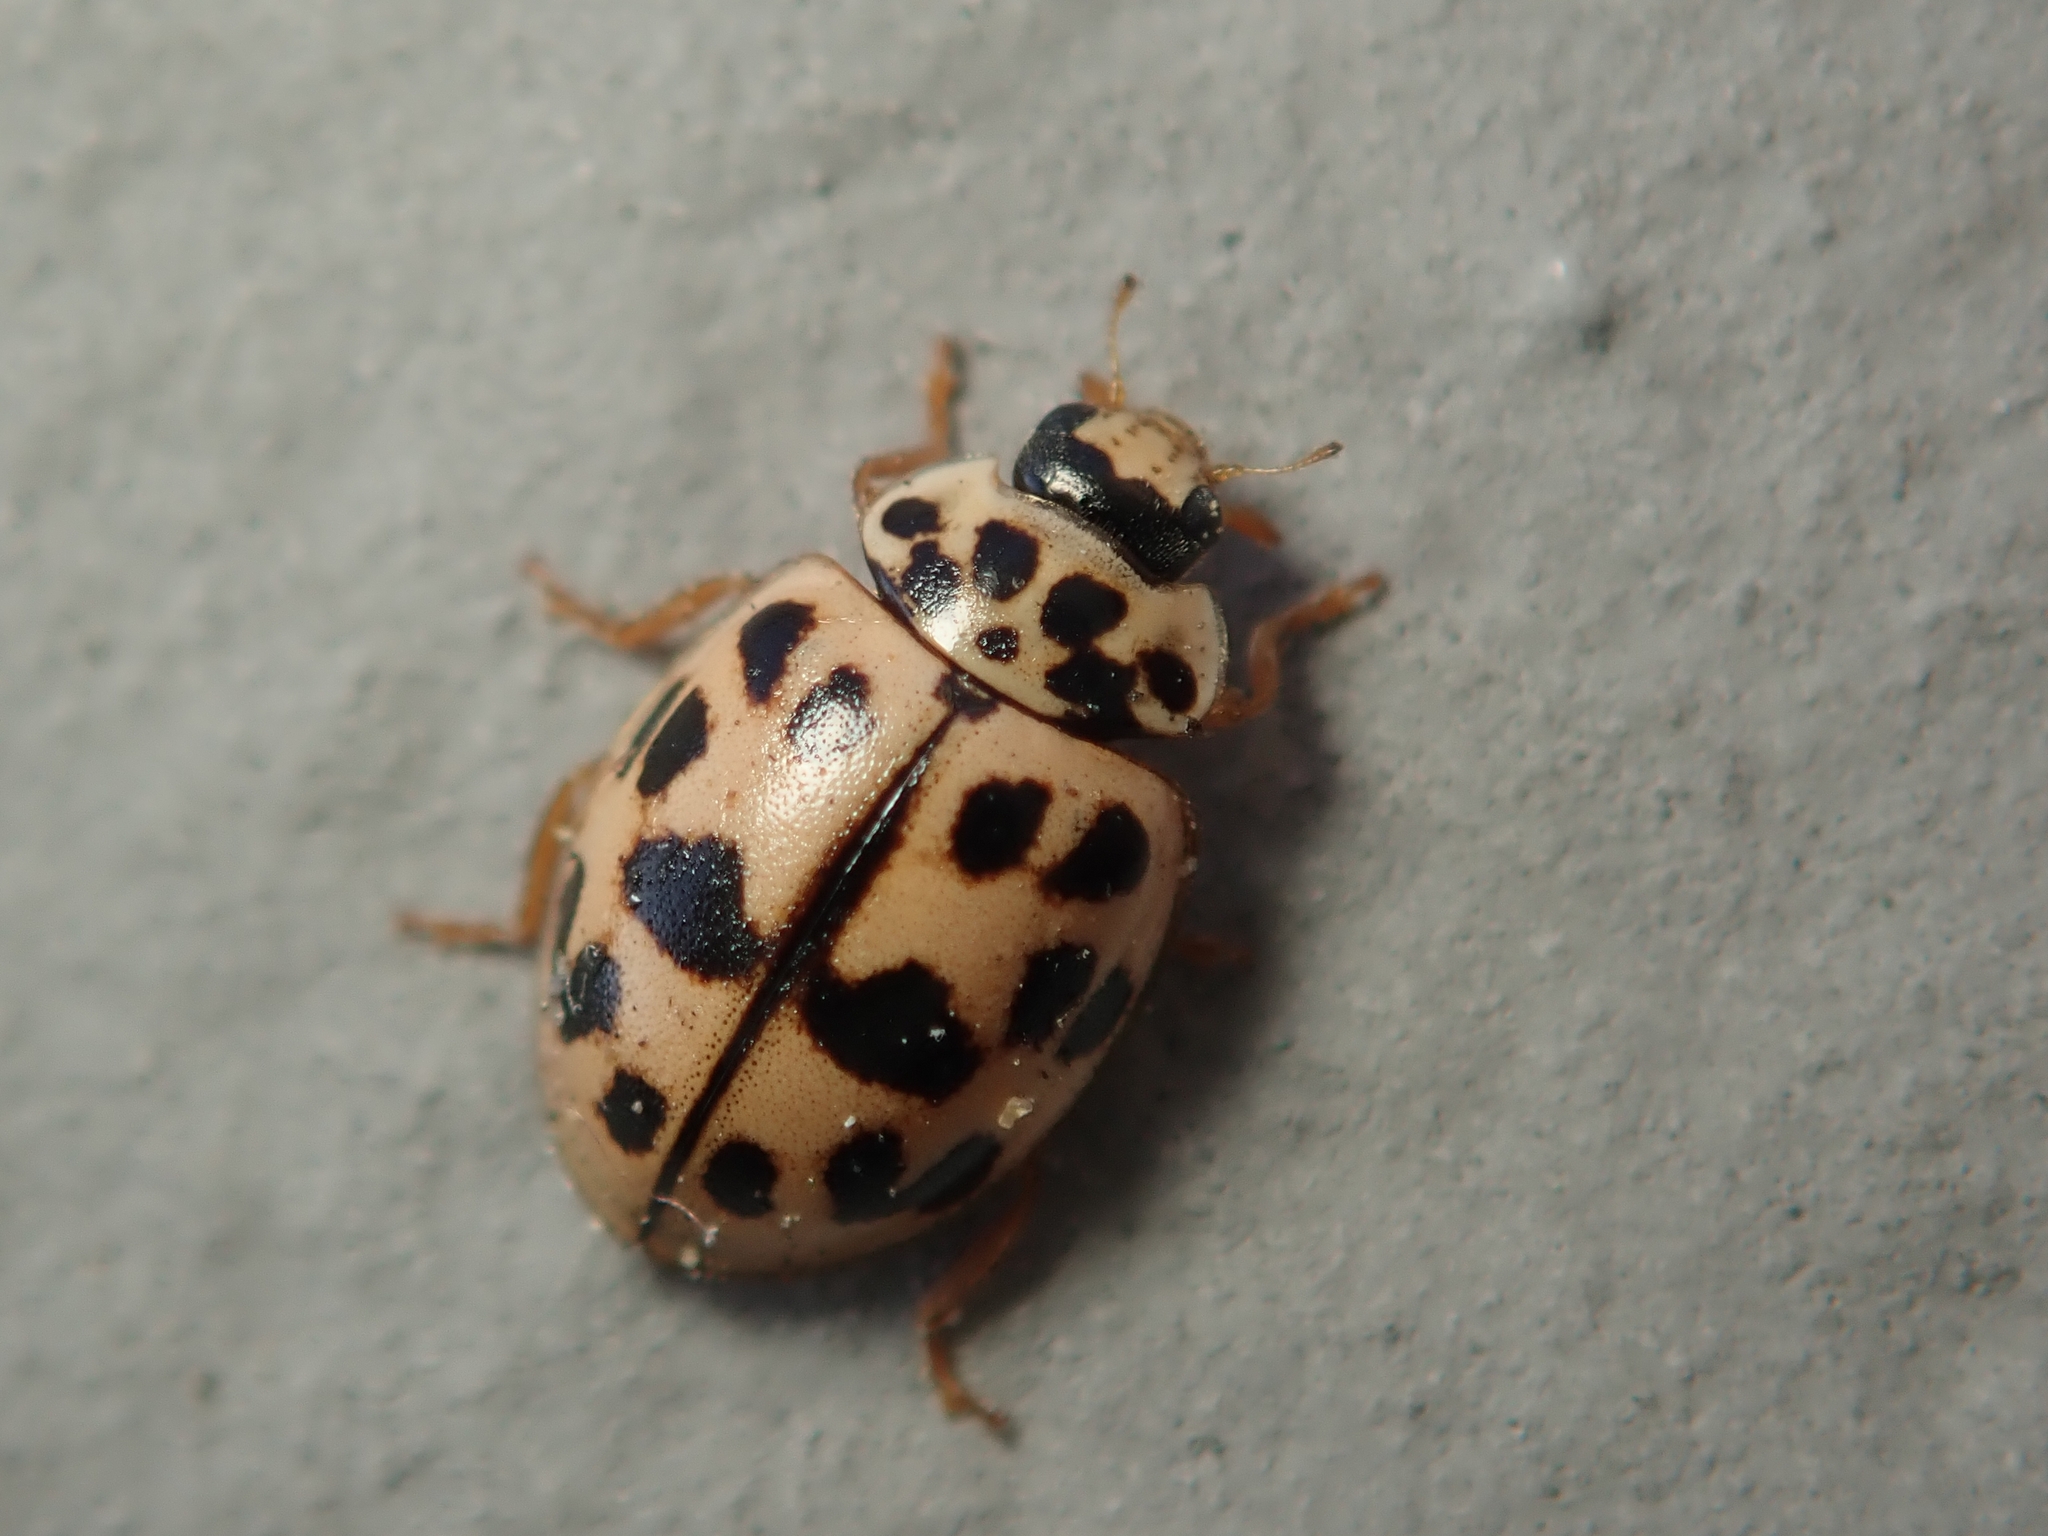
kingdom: Animalia
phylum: Arthropoda
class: Insecta
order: Coleoptera
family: Coccinellidae
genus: Oenopia
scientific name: Oenopia conglobata
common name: Ladybird beetle
